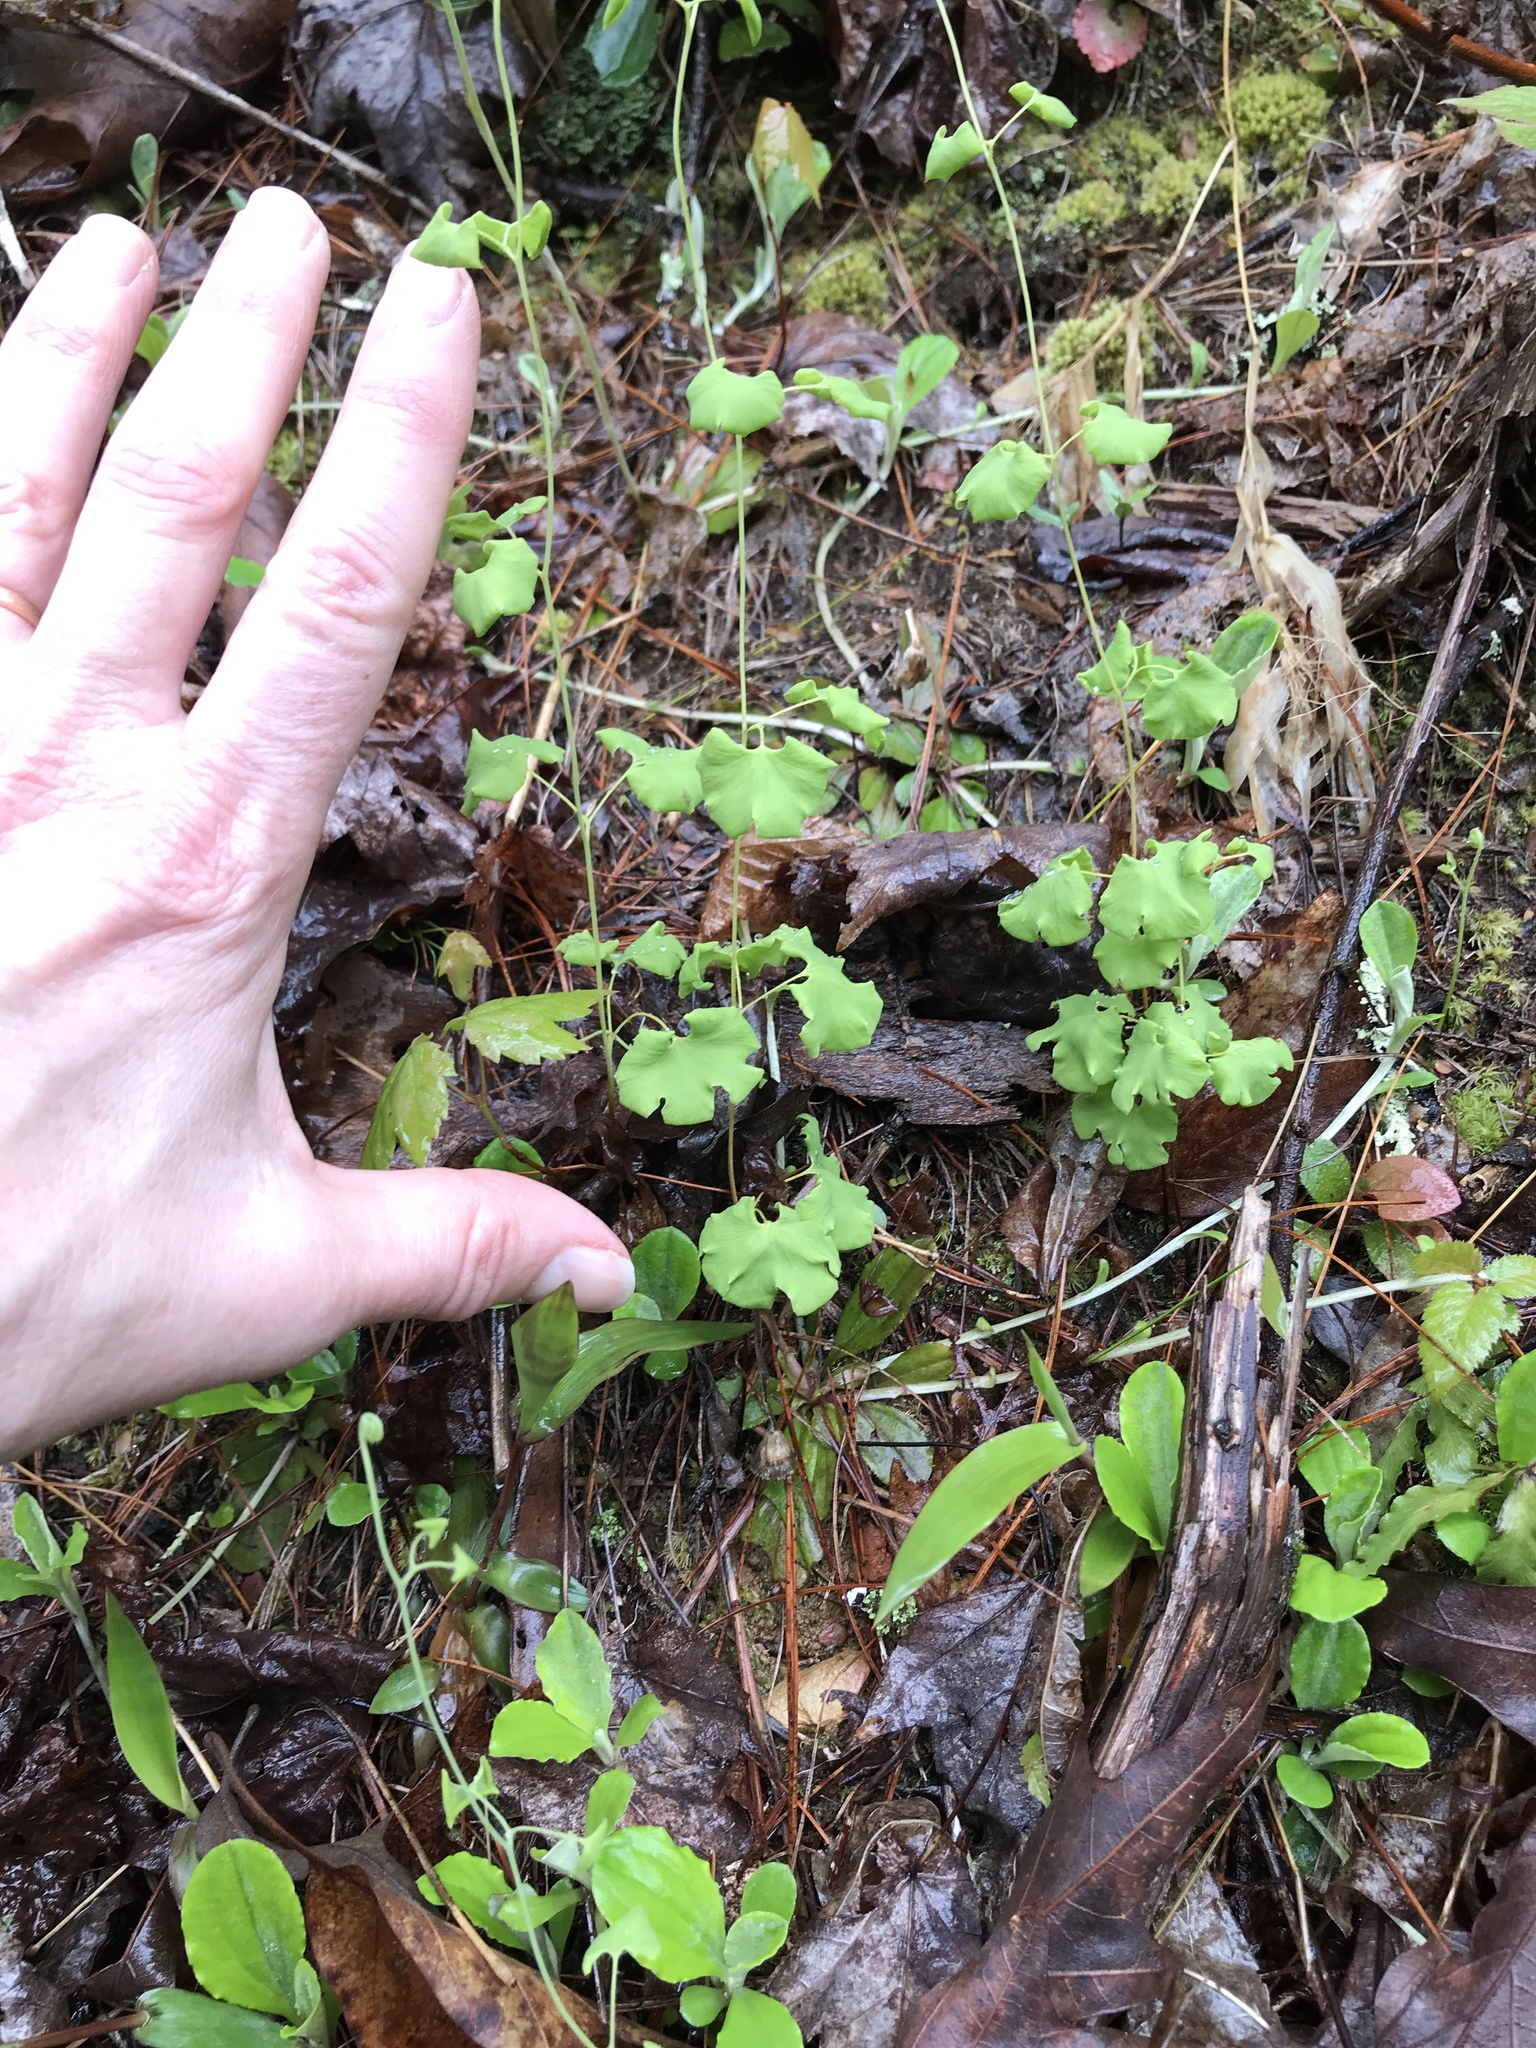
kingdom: Plantae
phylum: Tracheophyta
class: Polypodiopsida
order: Schizaeales
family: Lygodiaceae
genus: Lygodium
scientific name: Lygodium palmatum
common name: American climbing fern
